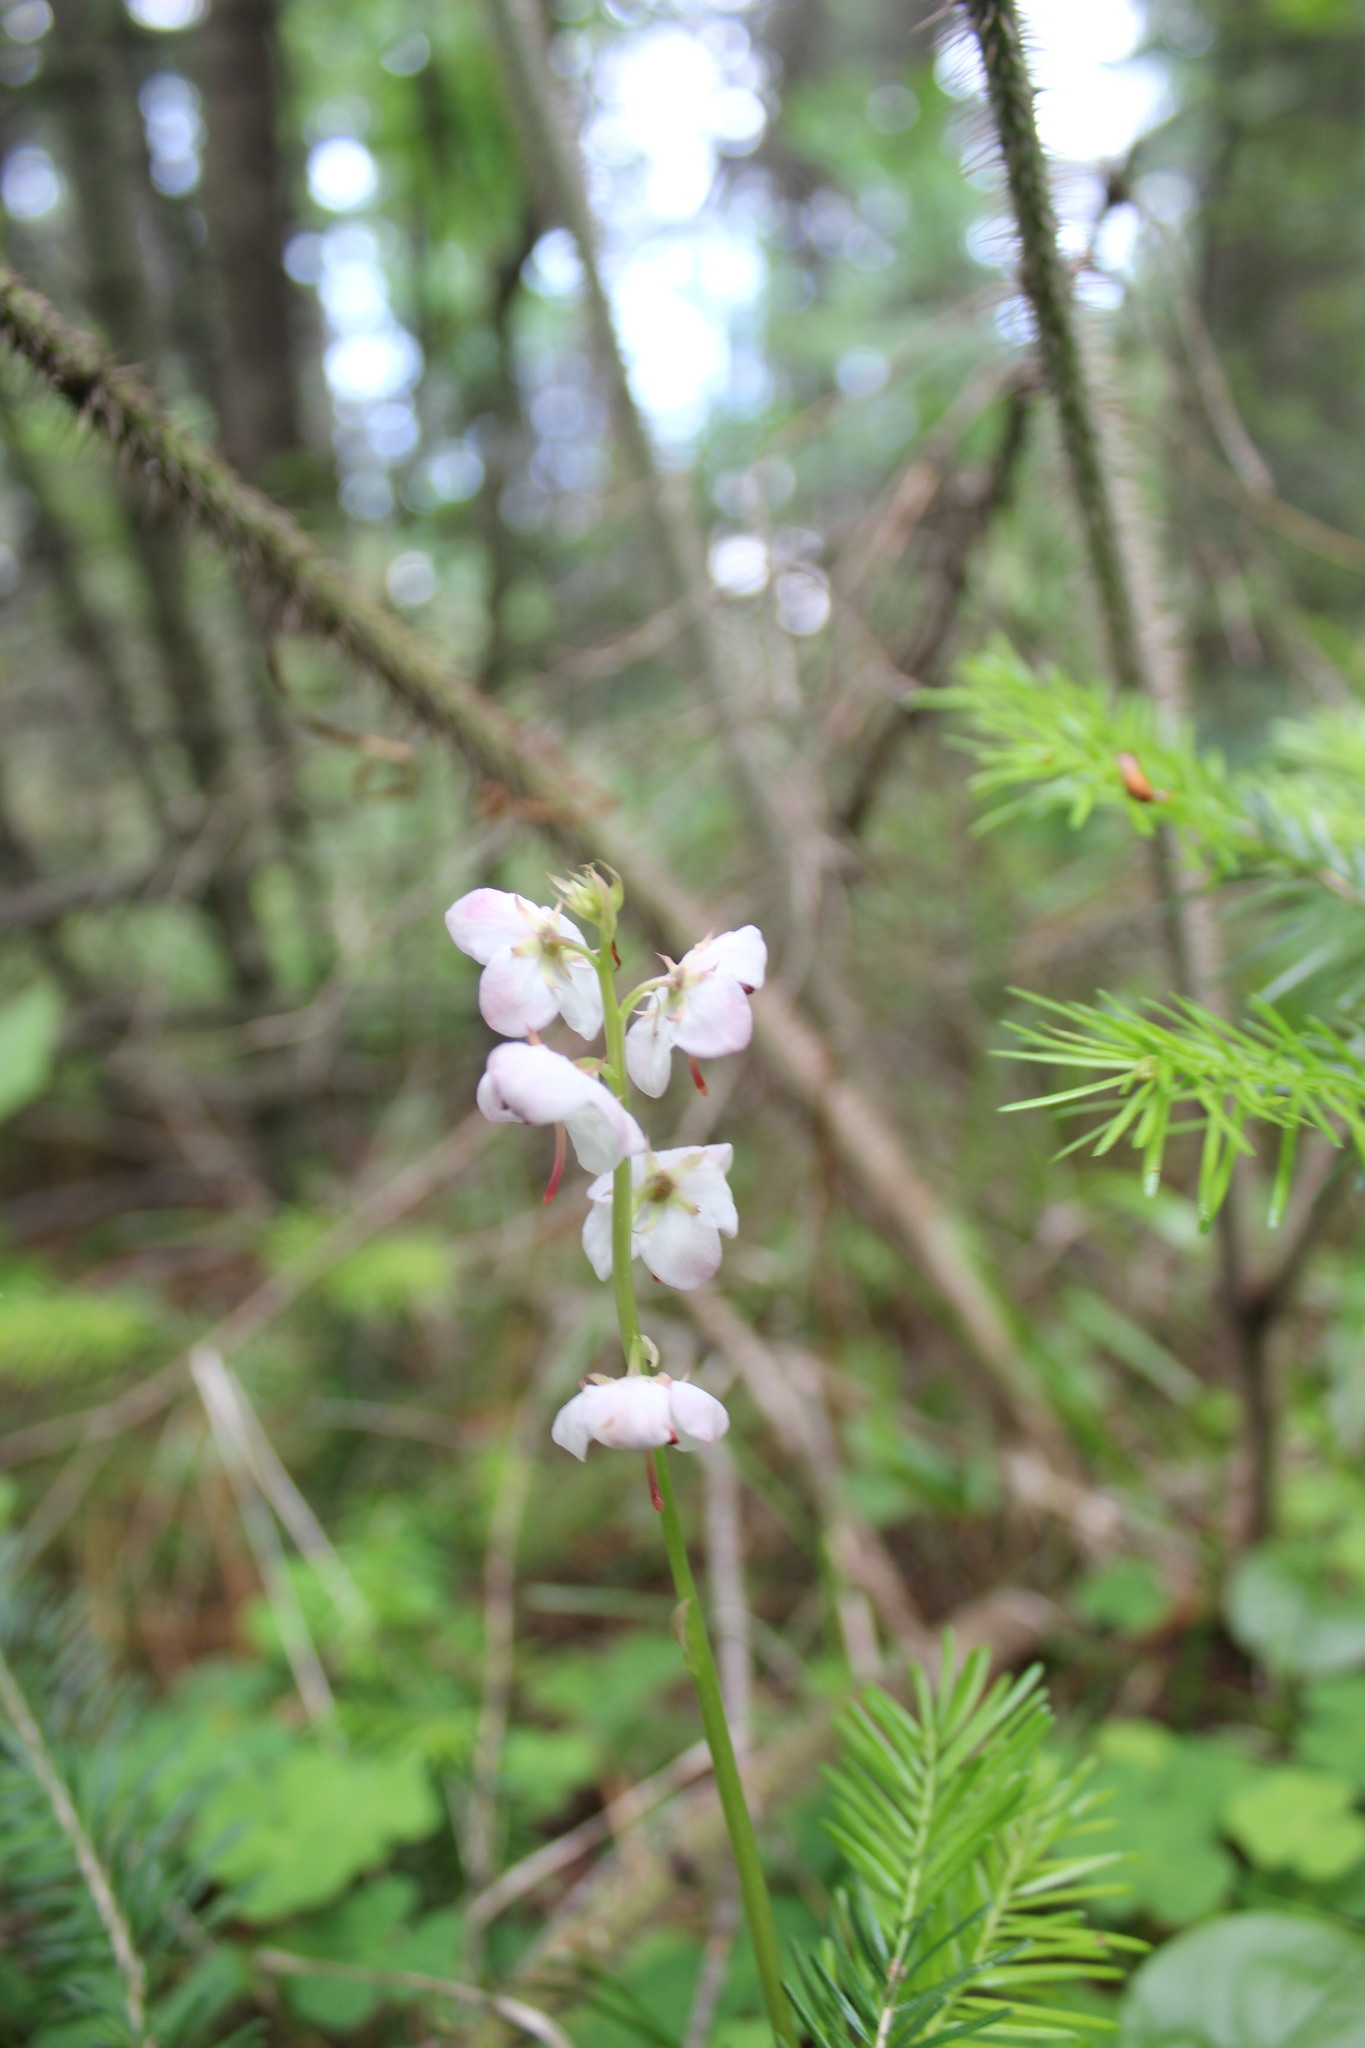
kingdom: Plantae
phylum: Tracheophyta
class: Magnoliopsida
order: Ericales
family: Ericaceae
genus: Pyrola
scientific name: Pyrola asarifolia
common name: Bog wintergreen
